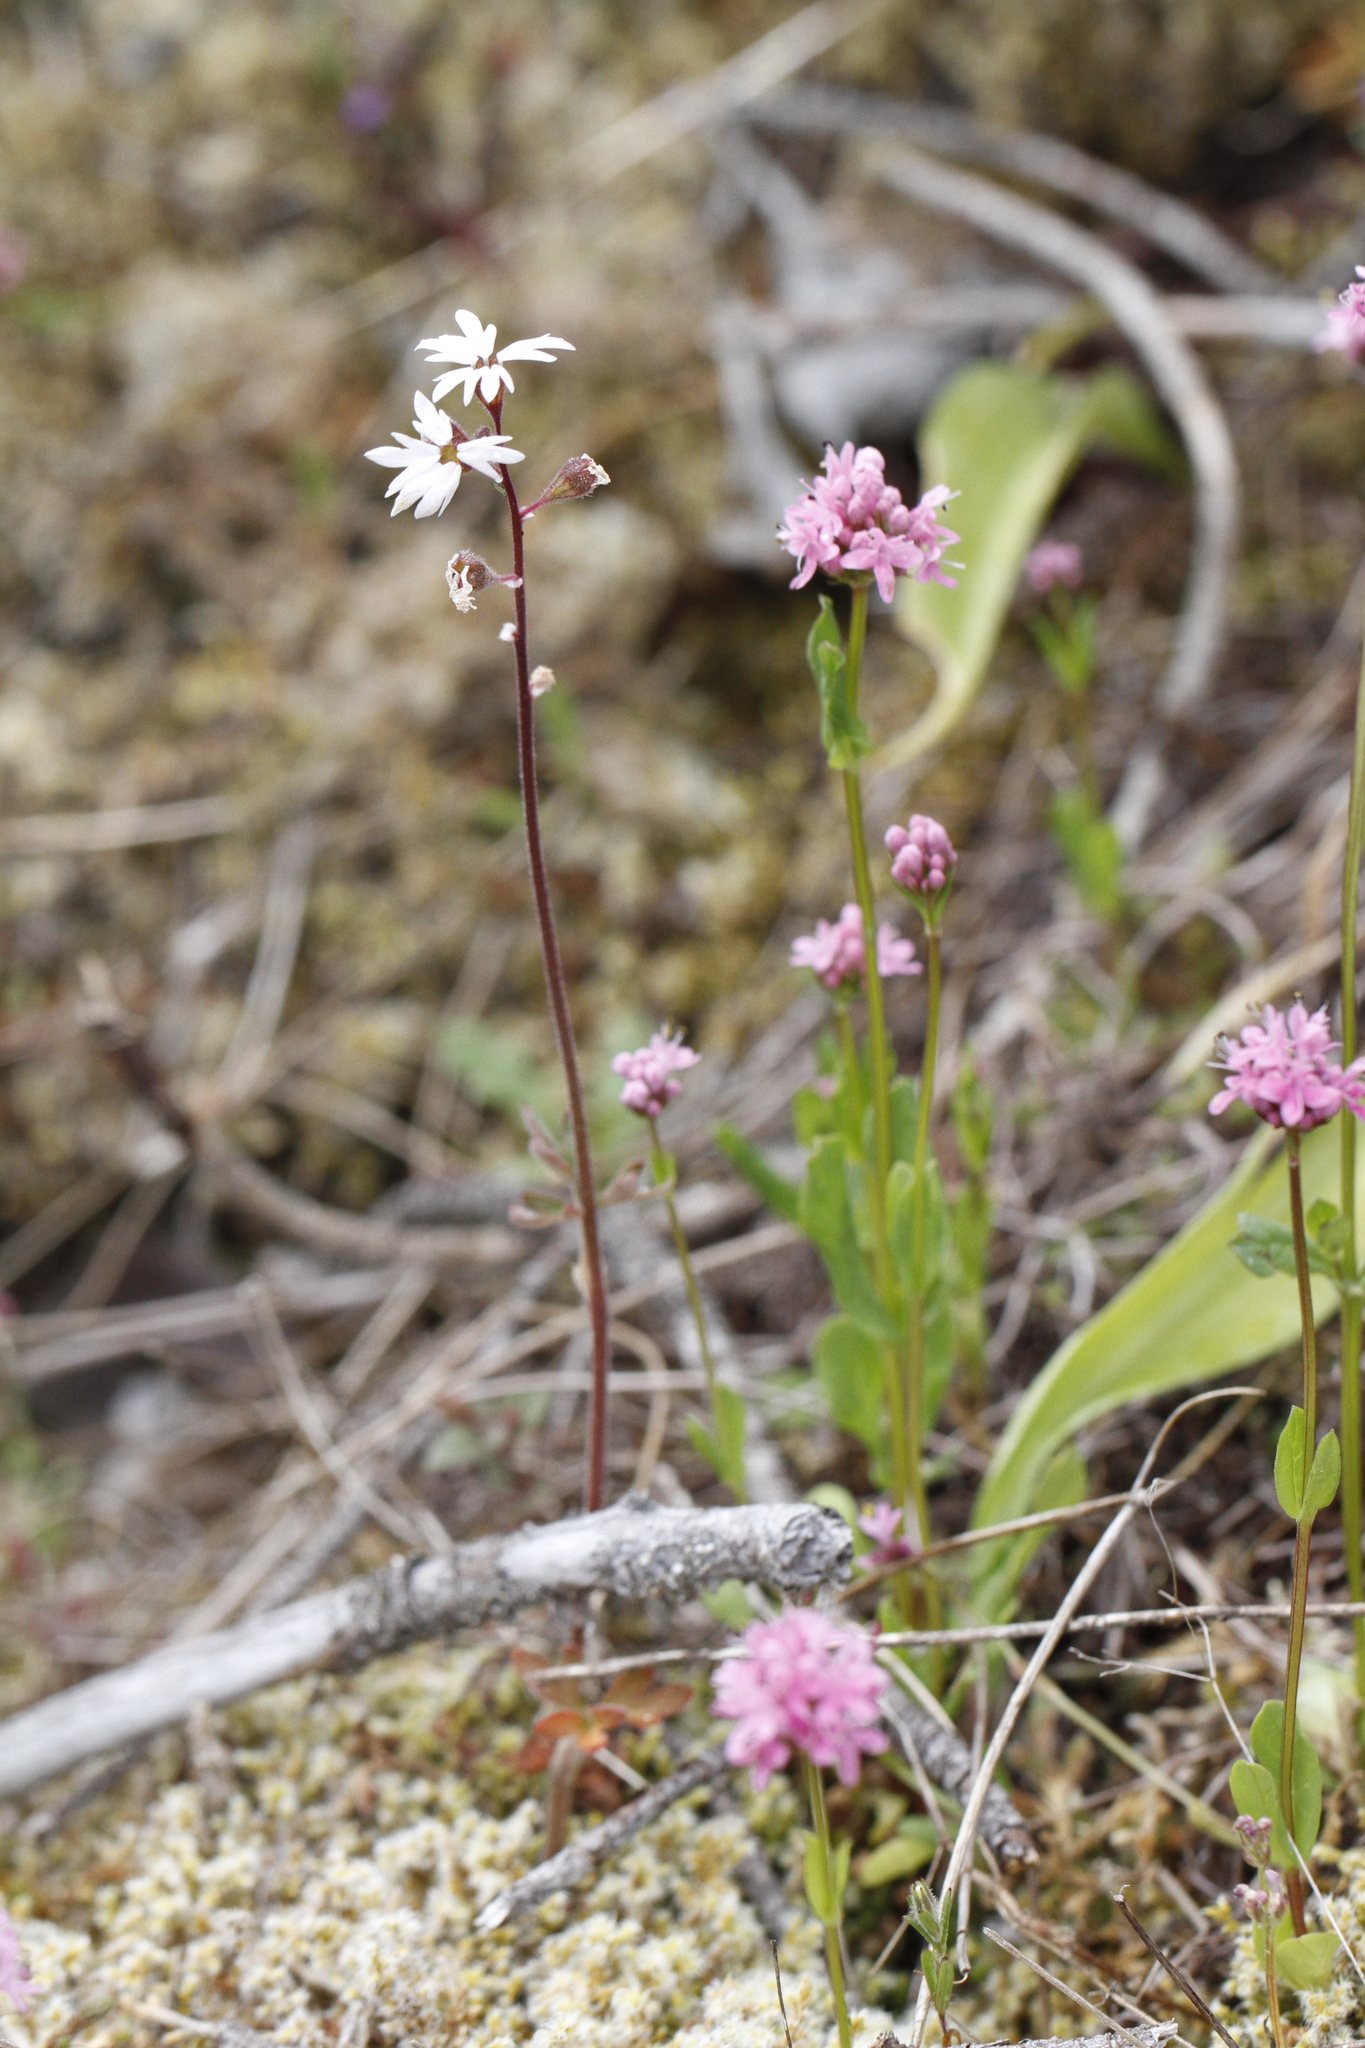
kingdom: Plantae
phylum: Tracheophyta
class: Magnoliopsida
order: Saxifragales
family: Saxifragaceae
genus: Lithophragma
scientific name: Lithophragma parviflorum
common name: Small-flowered fringe-cup
